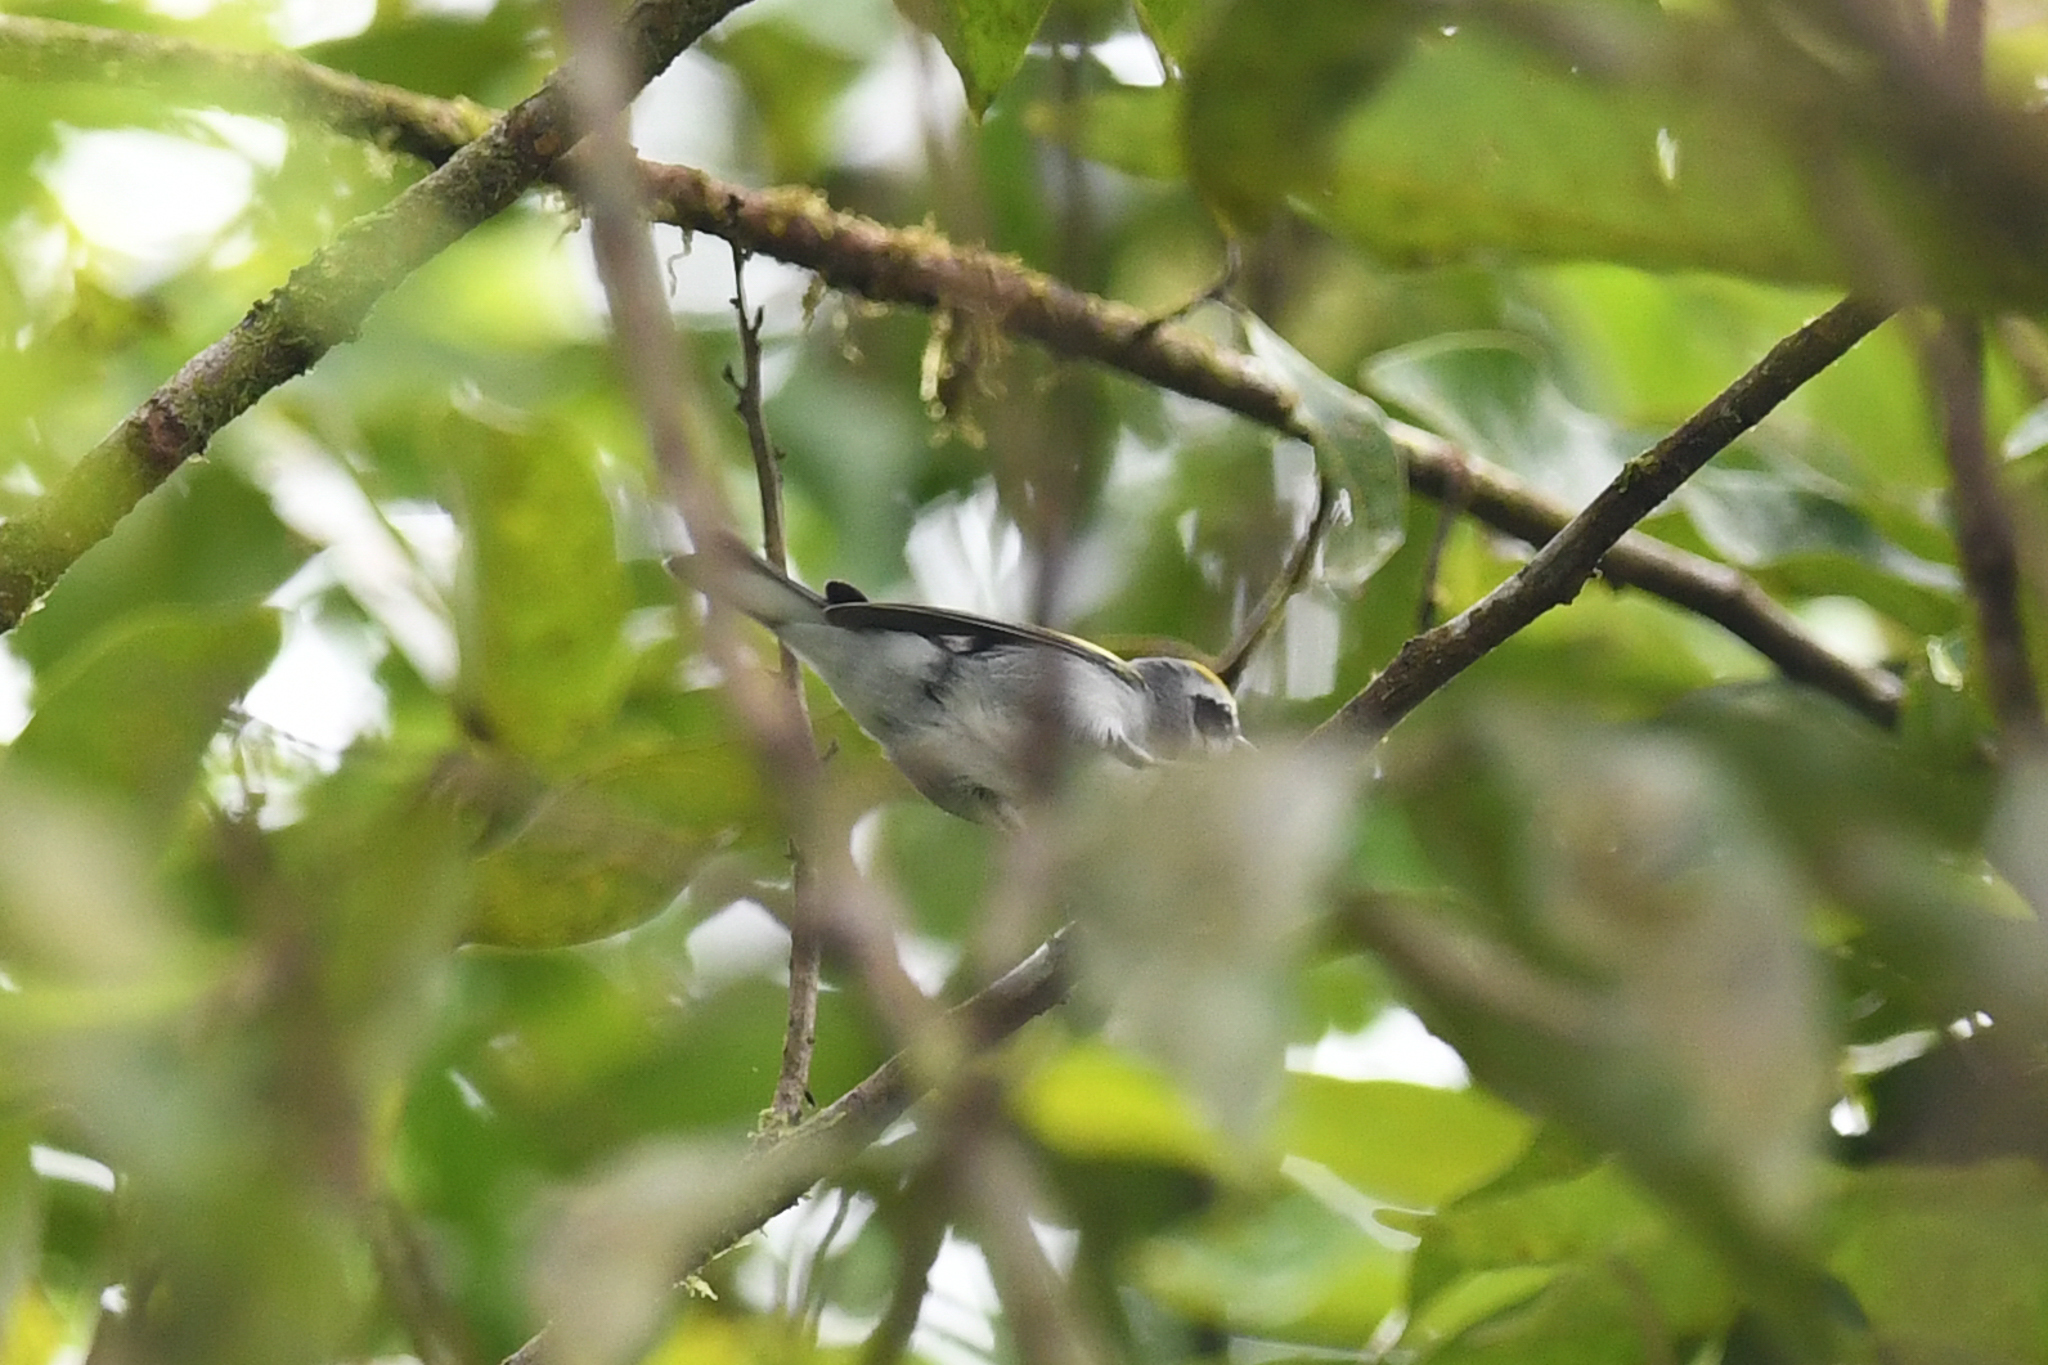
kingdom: Animalia
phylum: Chordata
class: Aves
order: Passeriformes
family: Parulidae
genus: Vermivora
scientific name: Vermivora chrysoptera
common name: Golden-winged warbler
